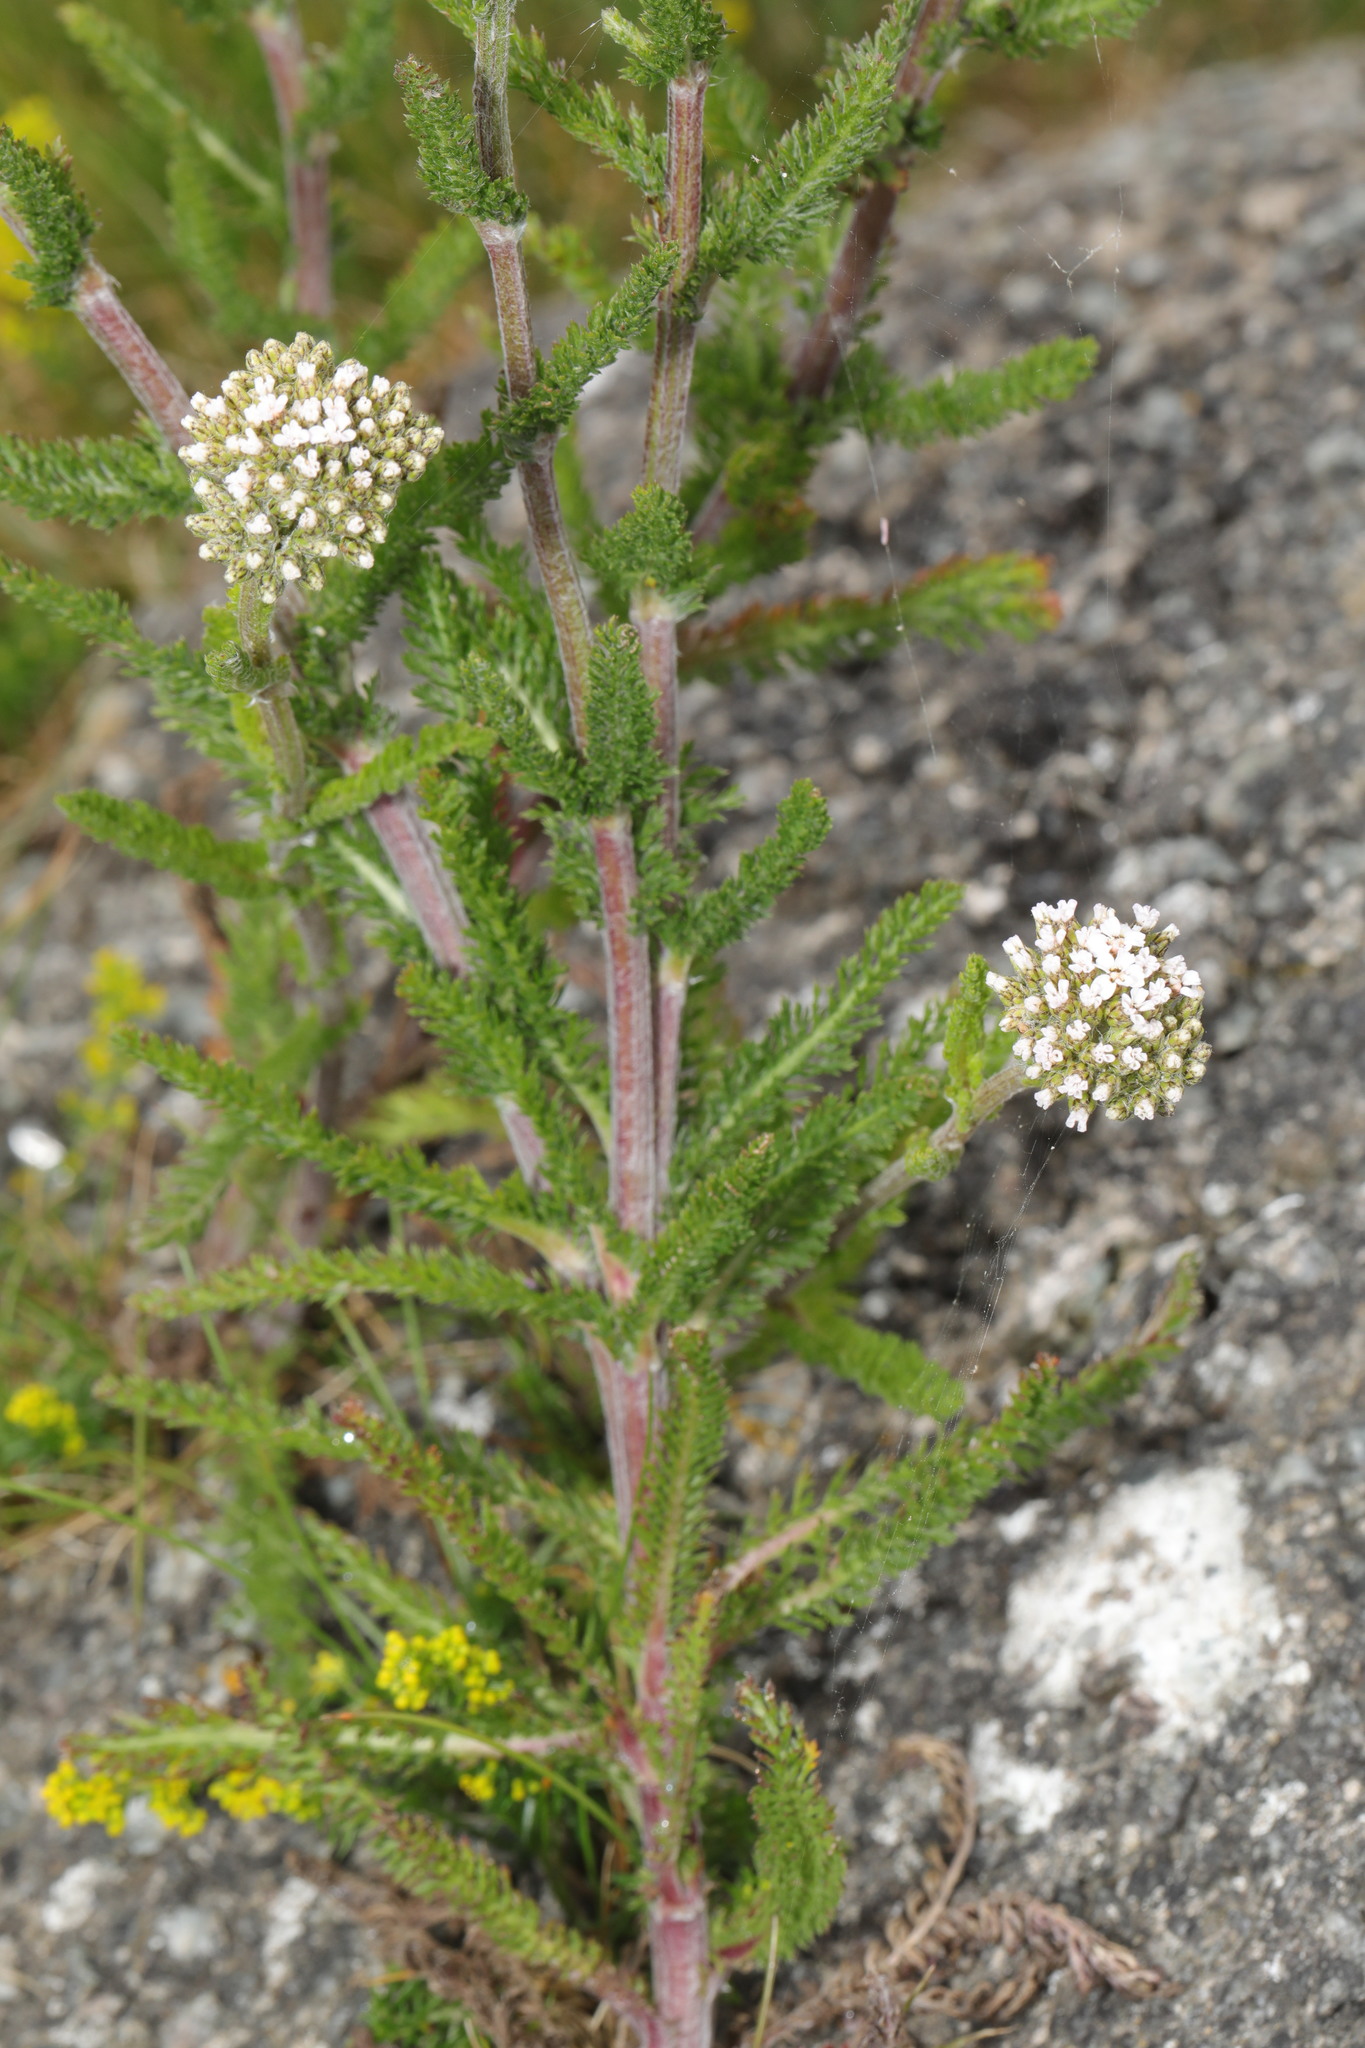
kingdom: Plantae
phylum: Tracheophyta
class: Magnoliopsida
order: Asterales
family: Asteraceae
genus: Achillea
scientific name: Achillea millefolium
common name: Yarrow
